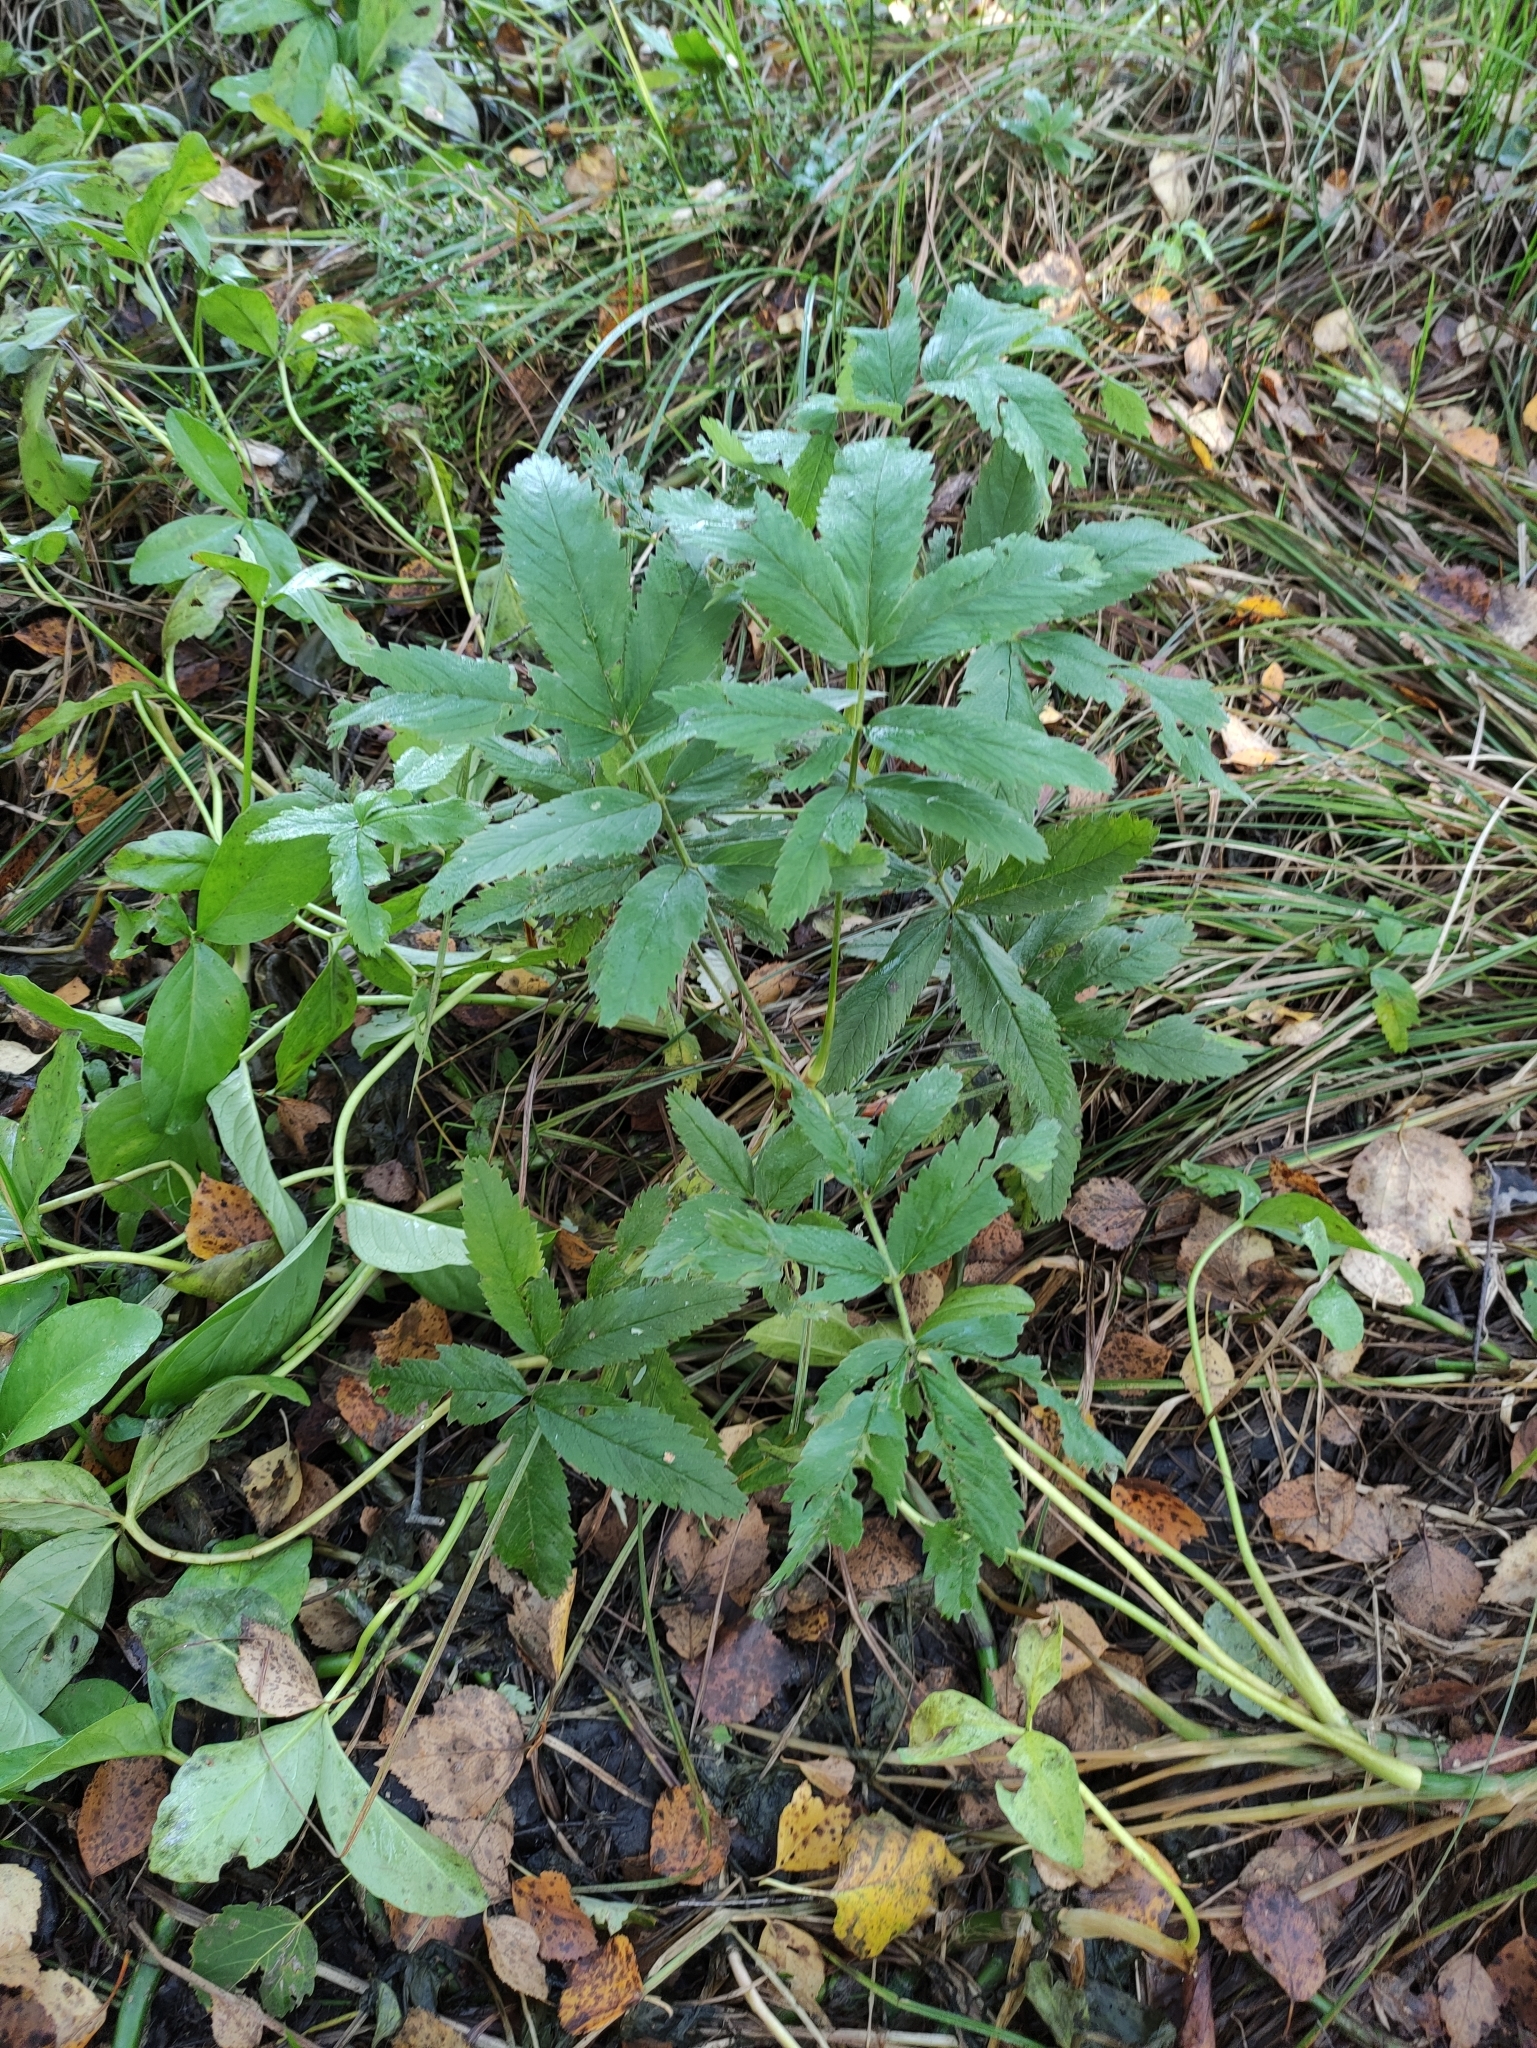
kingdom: Plantae
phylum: Tracheophyta
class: Magnoliopsida
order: Rosales
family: Rosaceae
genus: Comarum
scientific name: Comarum palustre
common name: Marsh cinquefoil
